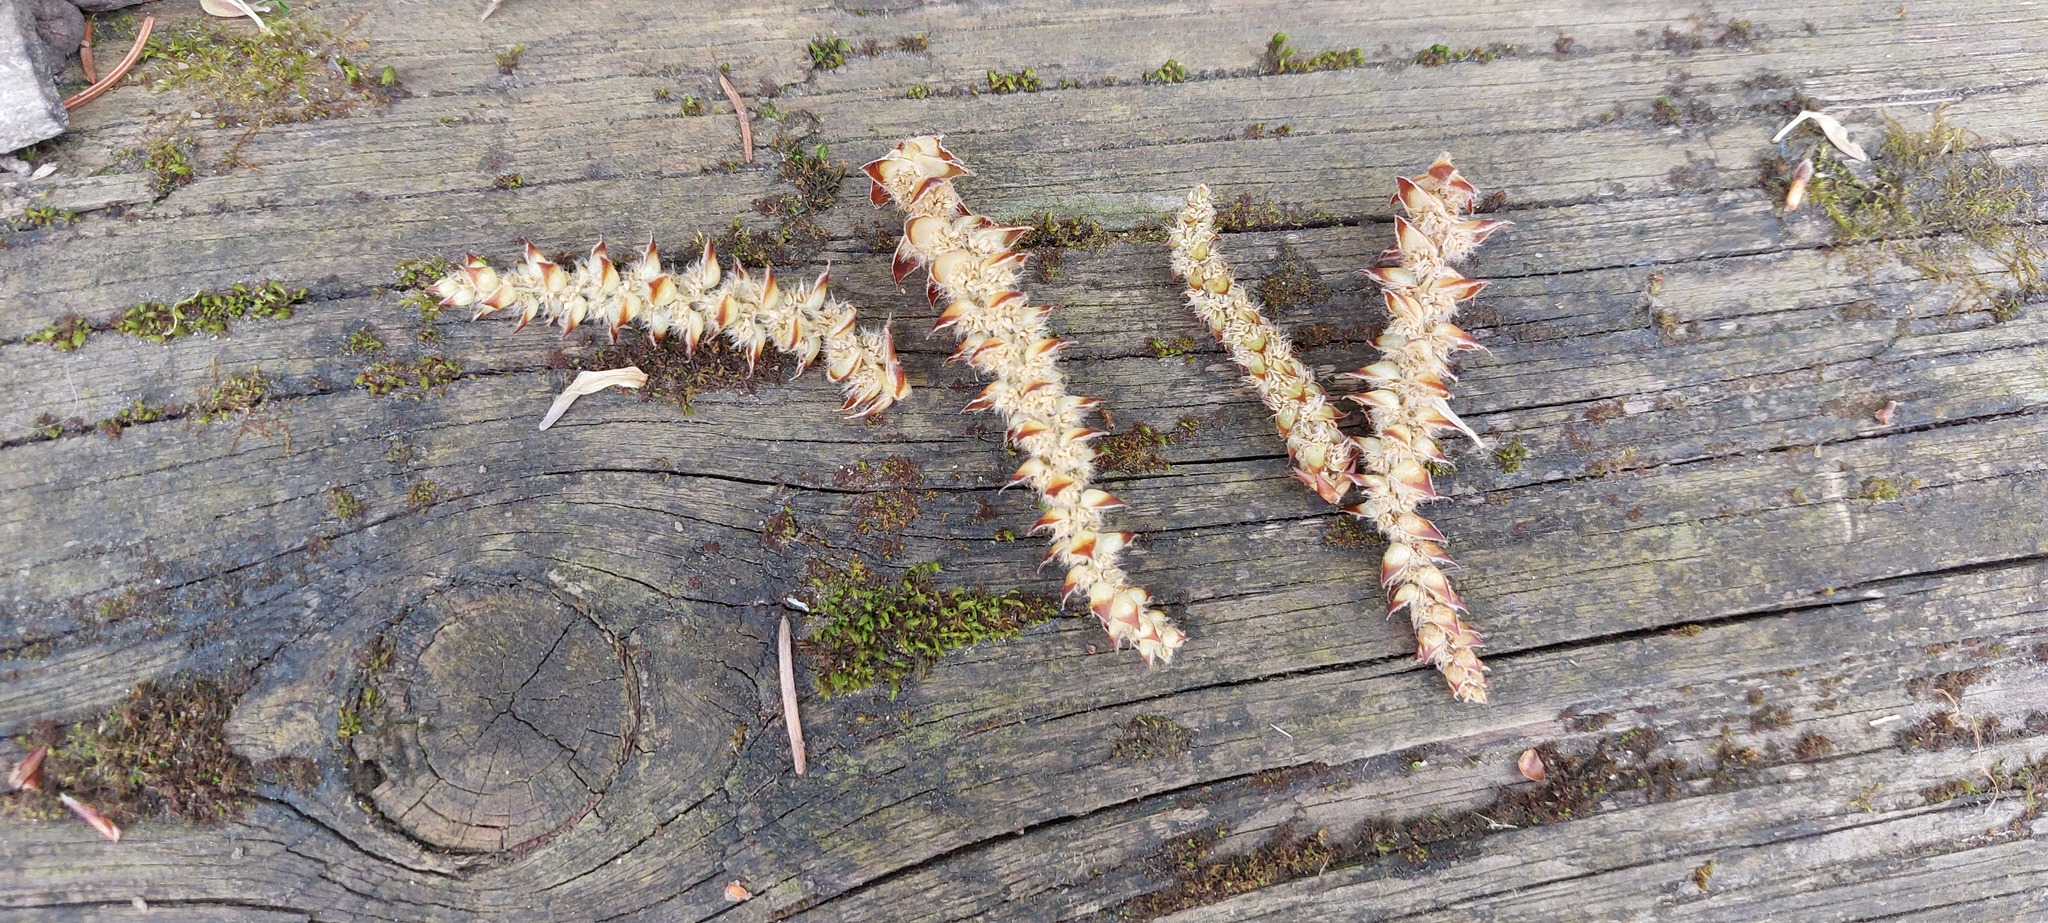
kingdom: Plantae
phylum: Tracheophyta
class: Magnoliopsida
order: Fagales
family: Betulaceae
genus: Carpinus
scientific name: Carpinus betulus
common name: Hornbeam
